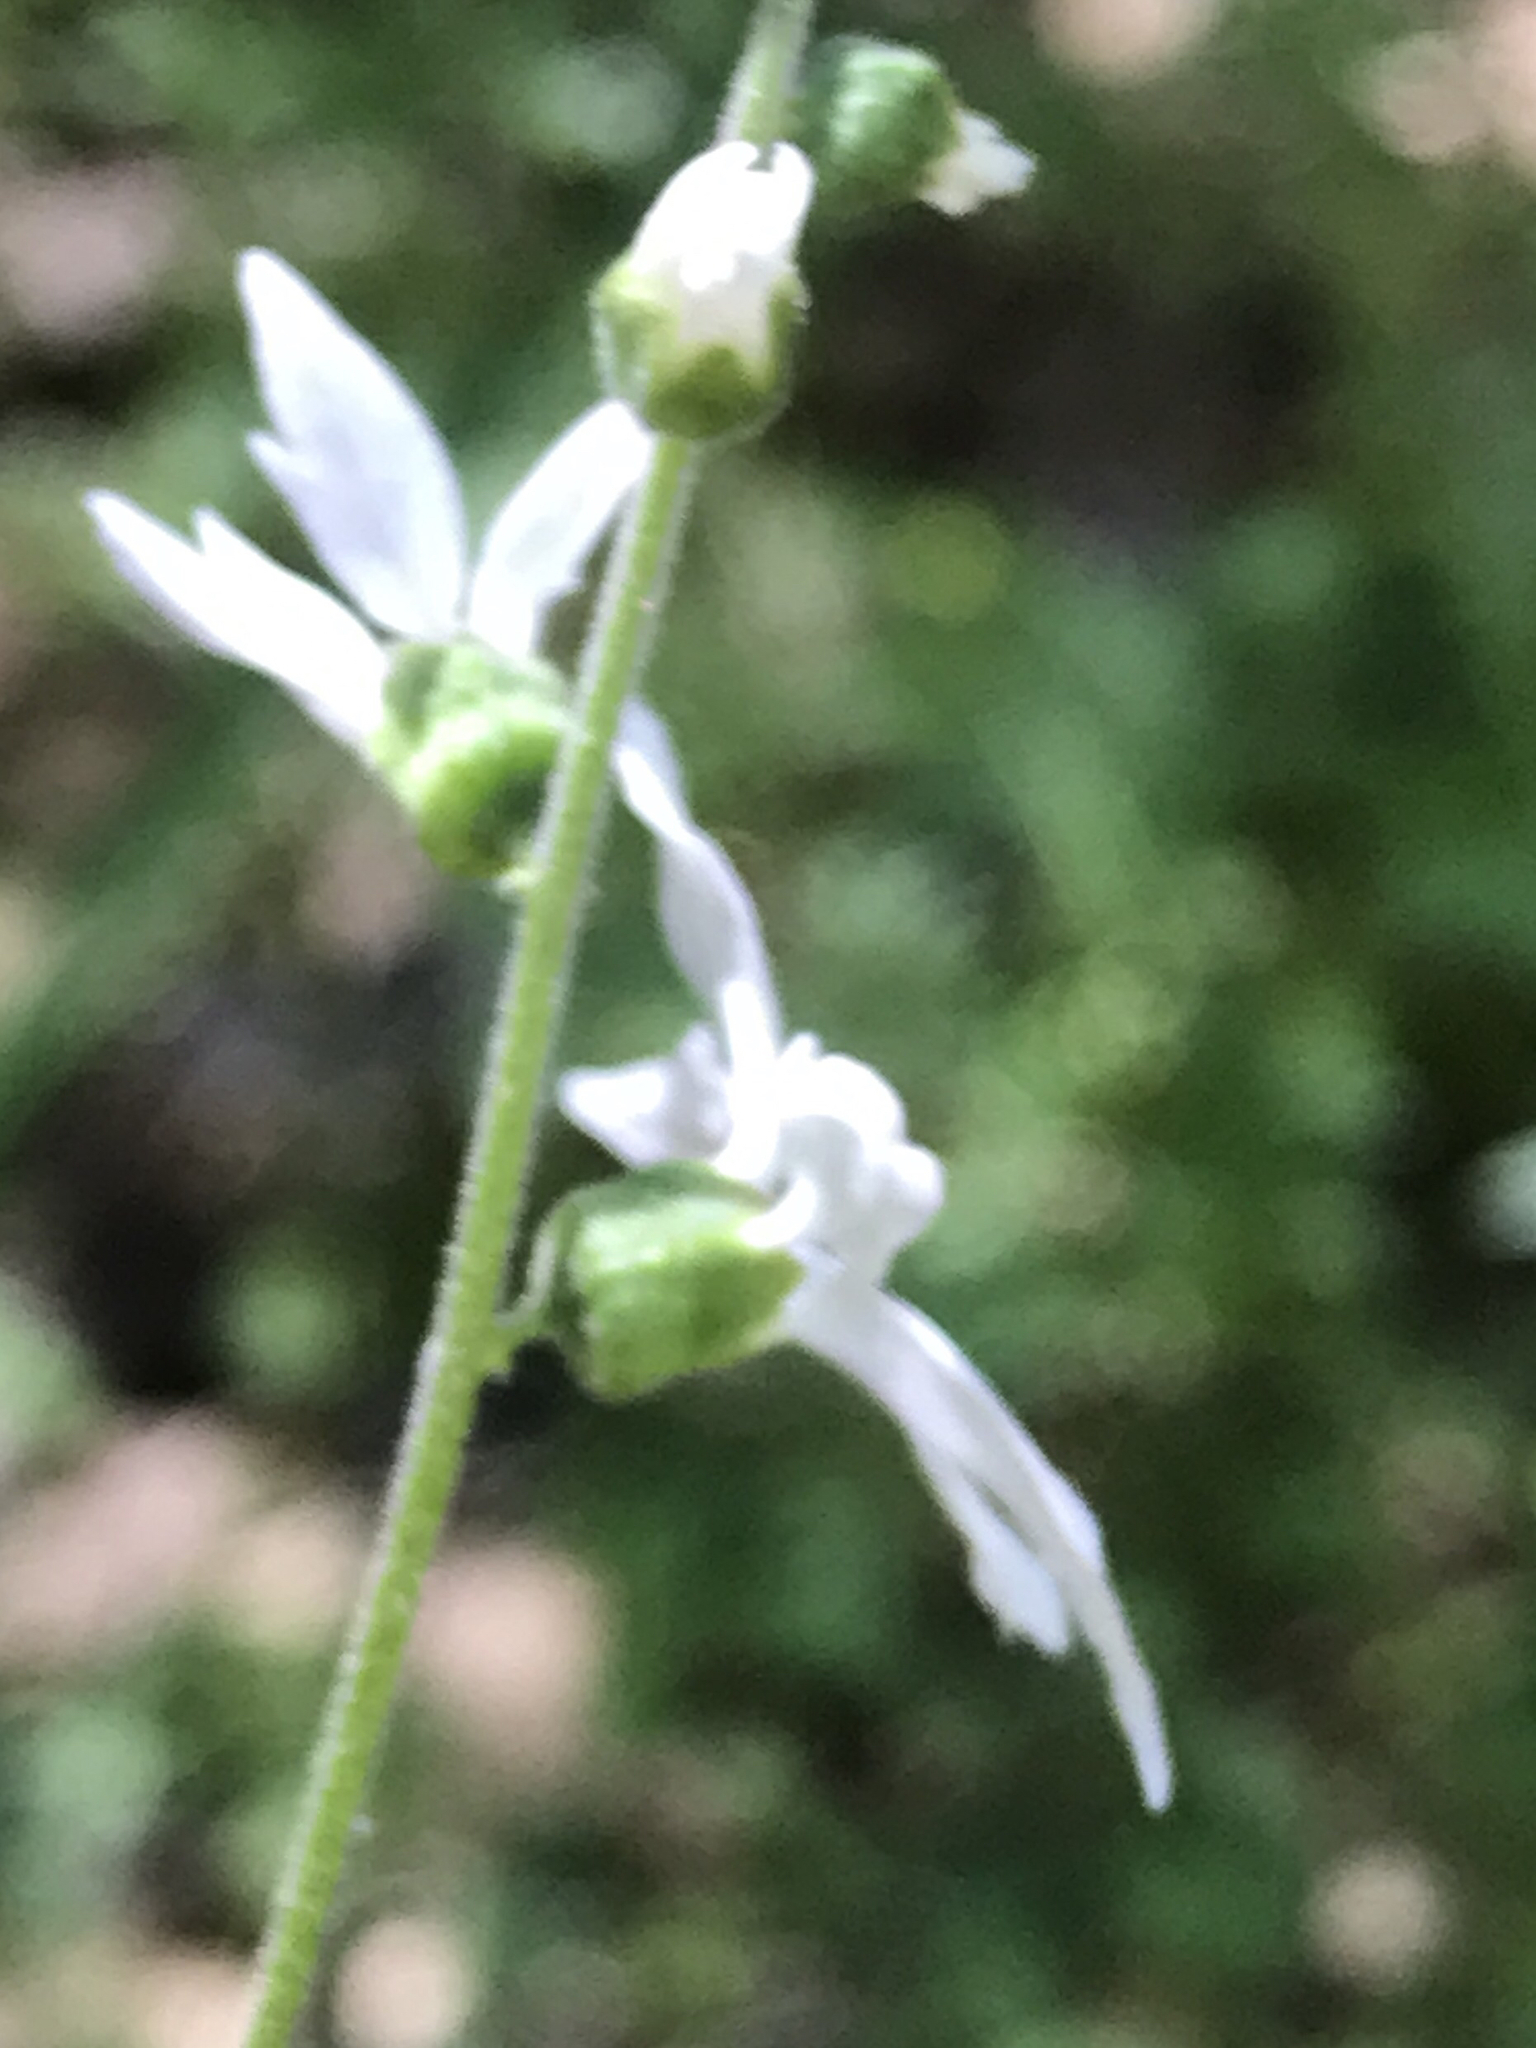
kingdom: Plantae
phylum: Tracheophyta
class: Magnoliopsida
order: Saxifragales
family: Saxifragaceae
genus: Lithophragma
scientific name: Lithophragma heterophyllum
